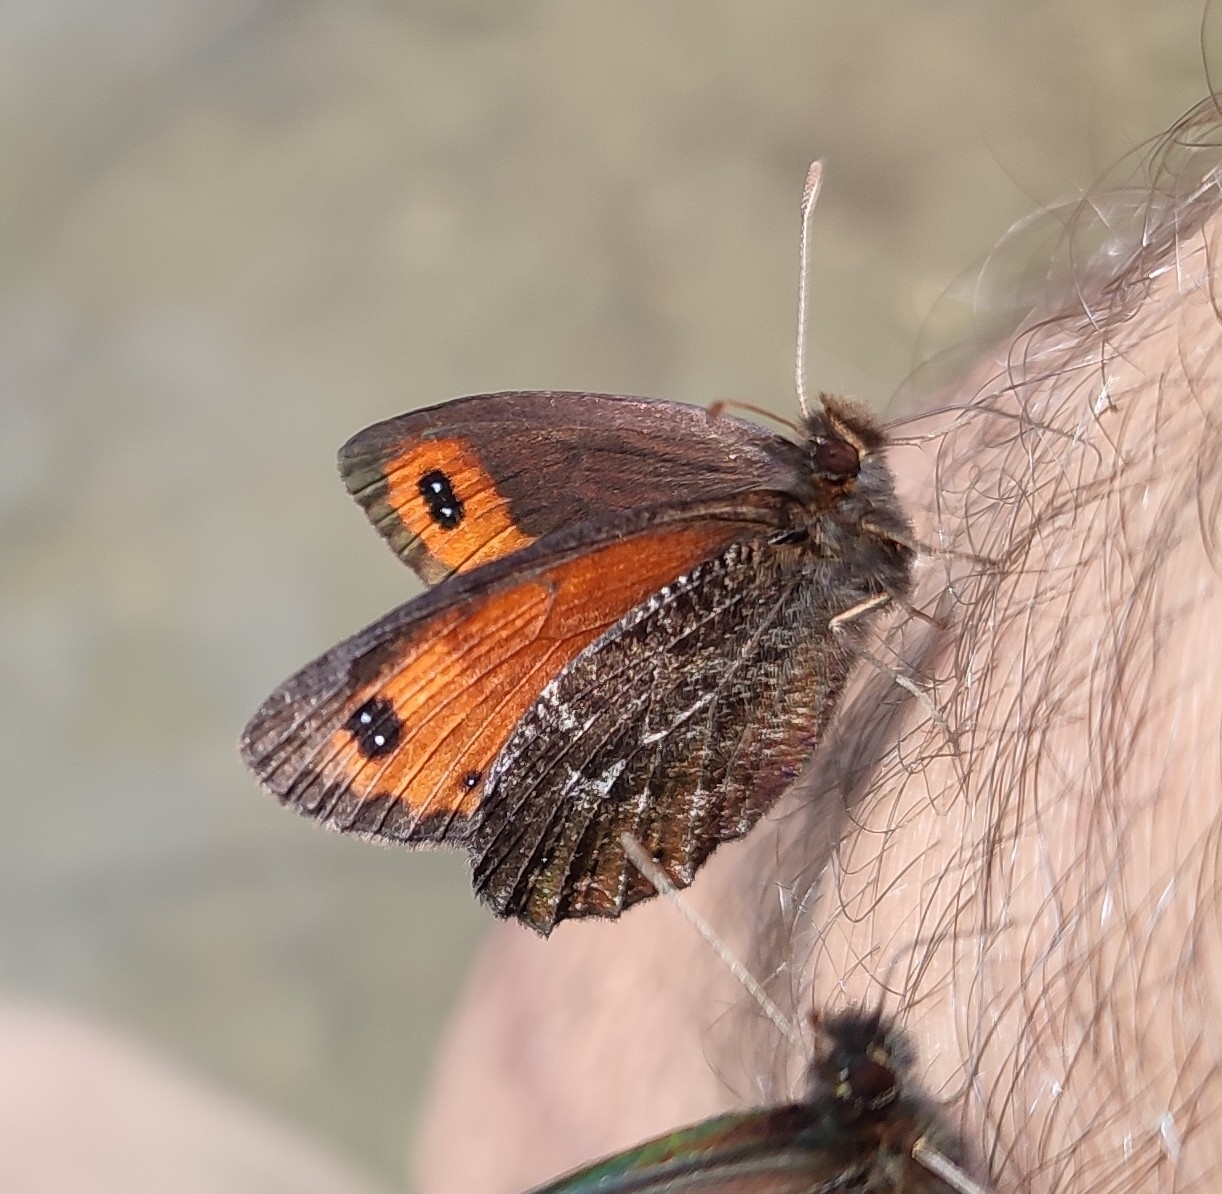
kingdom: Animalia
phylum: Arthropoda
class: Insecta
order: Lepidoptera
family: Nymphalidae
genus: Erebia
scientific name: Erebia montanus
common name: Marbled ringlet
